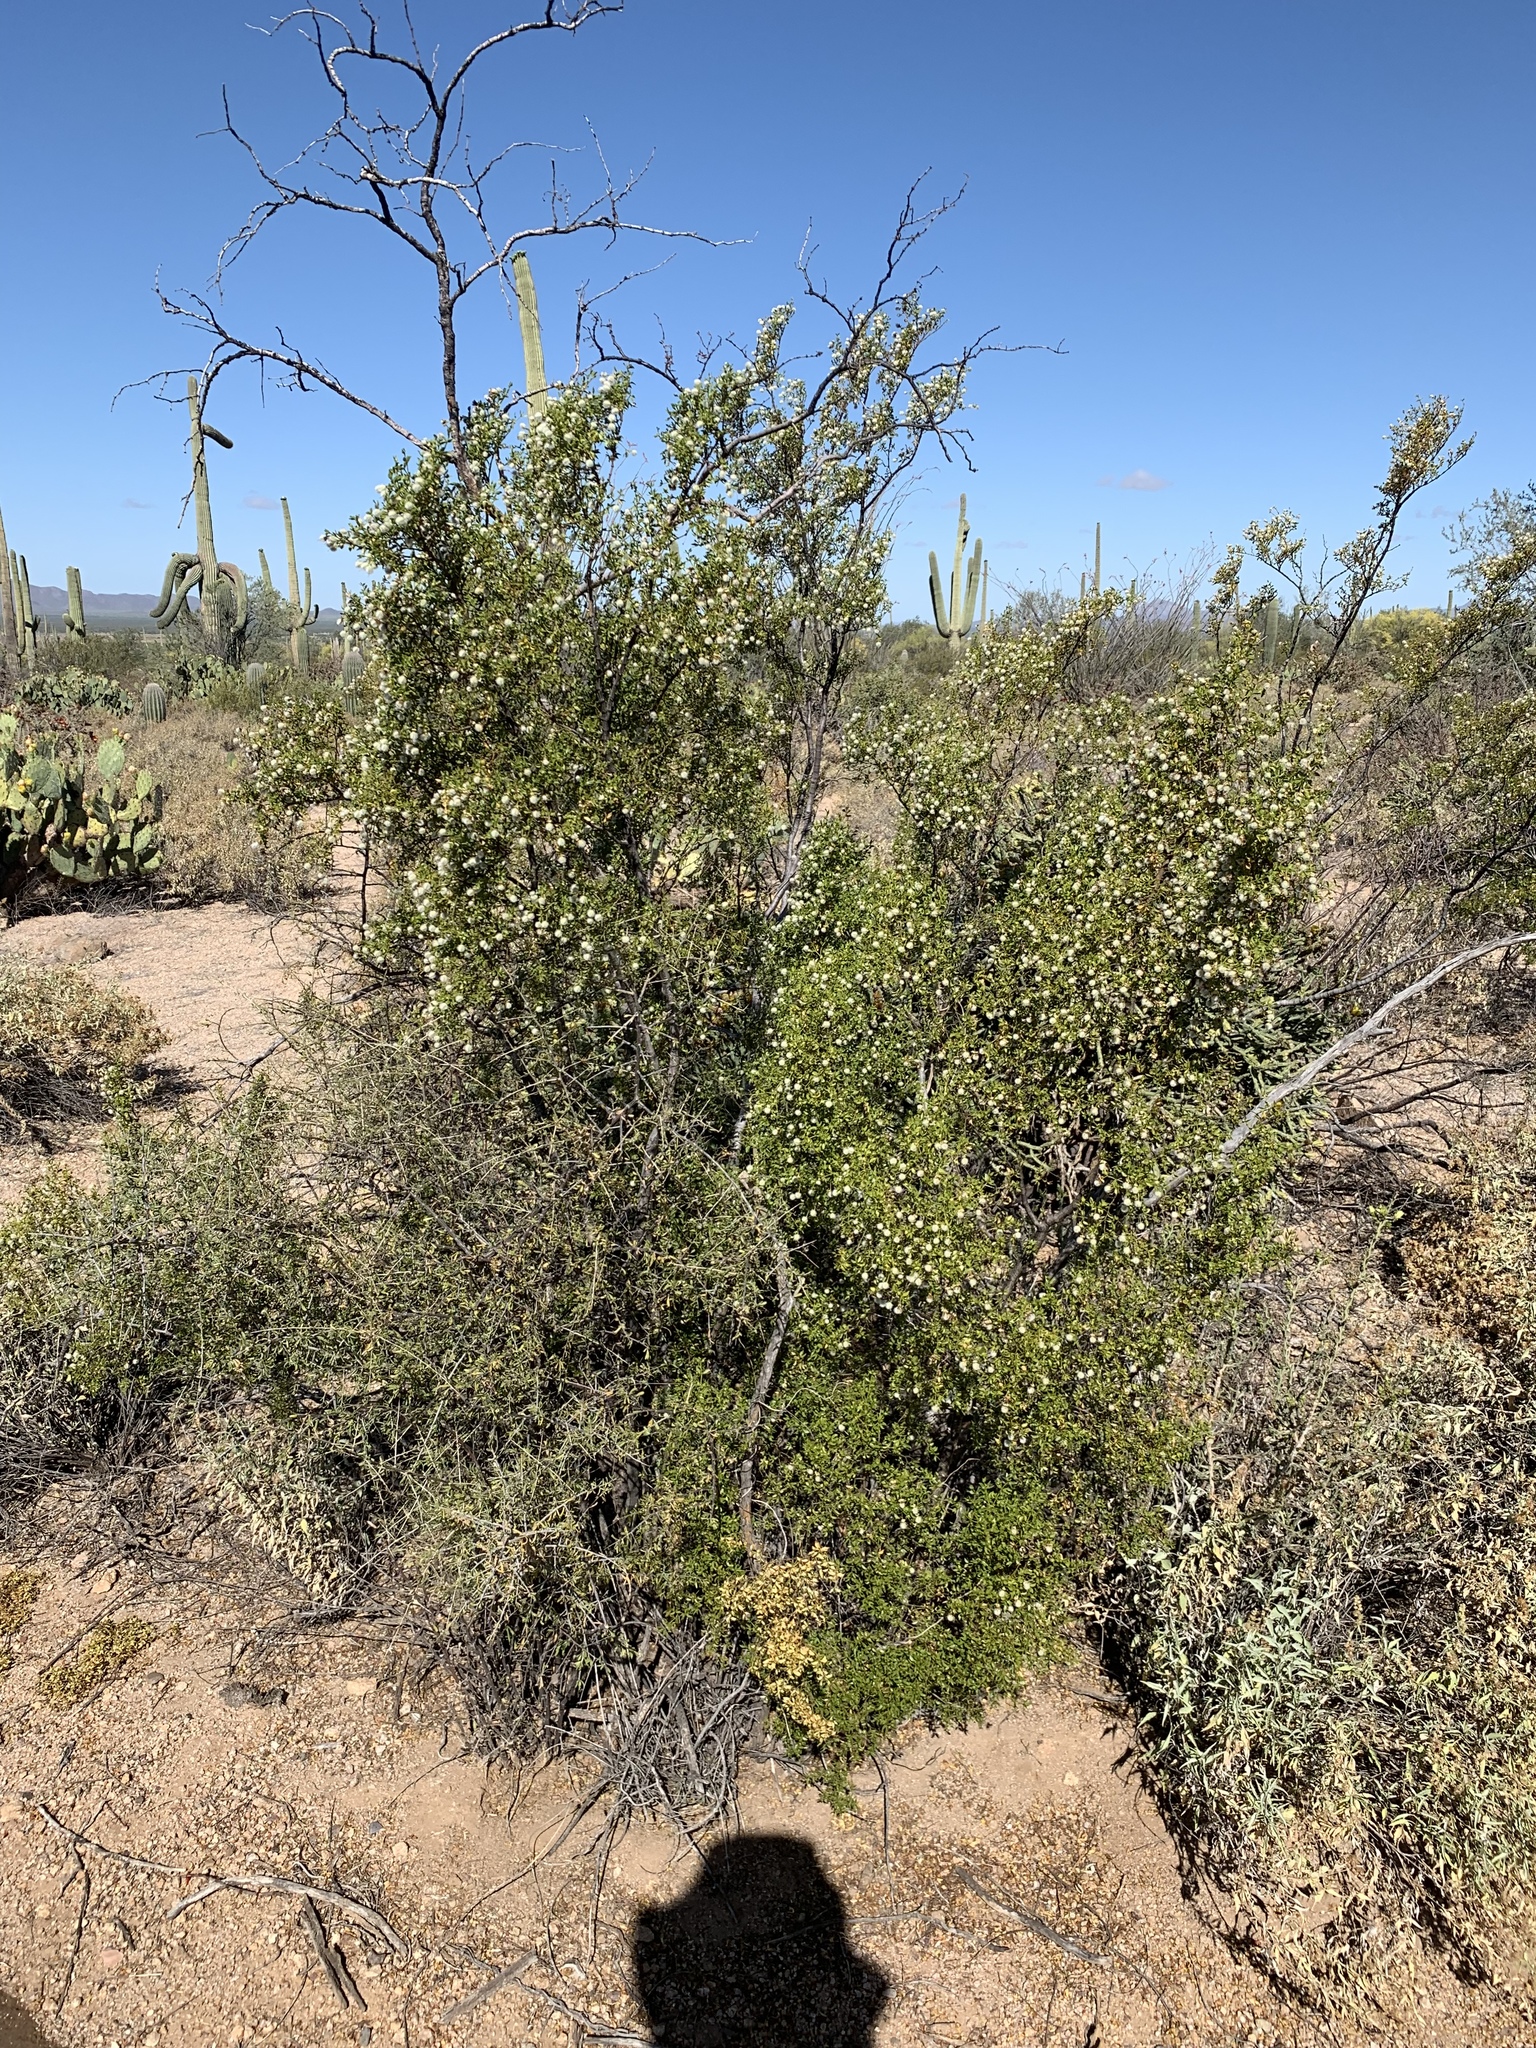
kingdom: Plantae
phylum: Tracheophyta
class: Magnoliopsida
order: Zygophyllales
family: Zygophyllaceae
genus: Larrea
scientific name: Larrea tridentata
